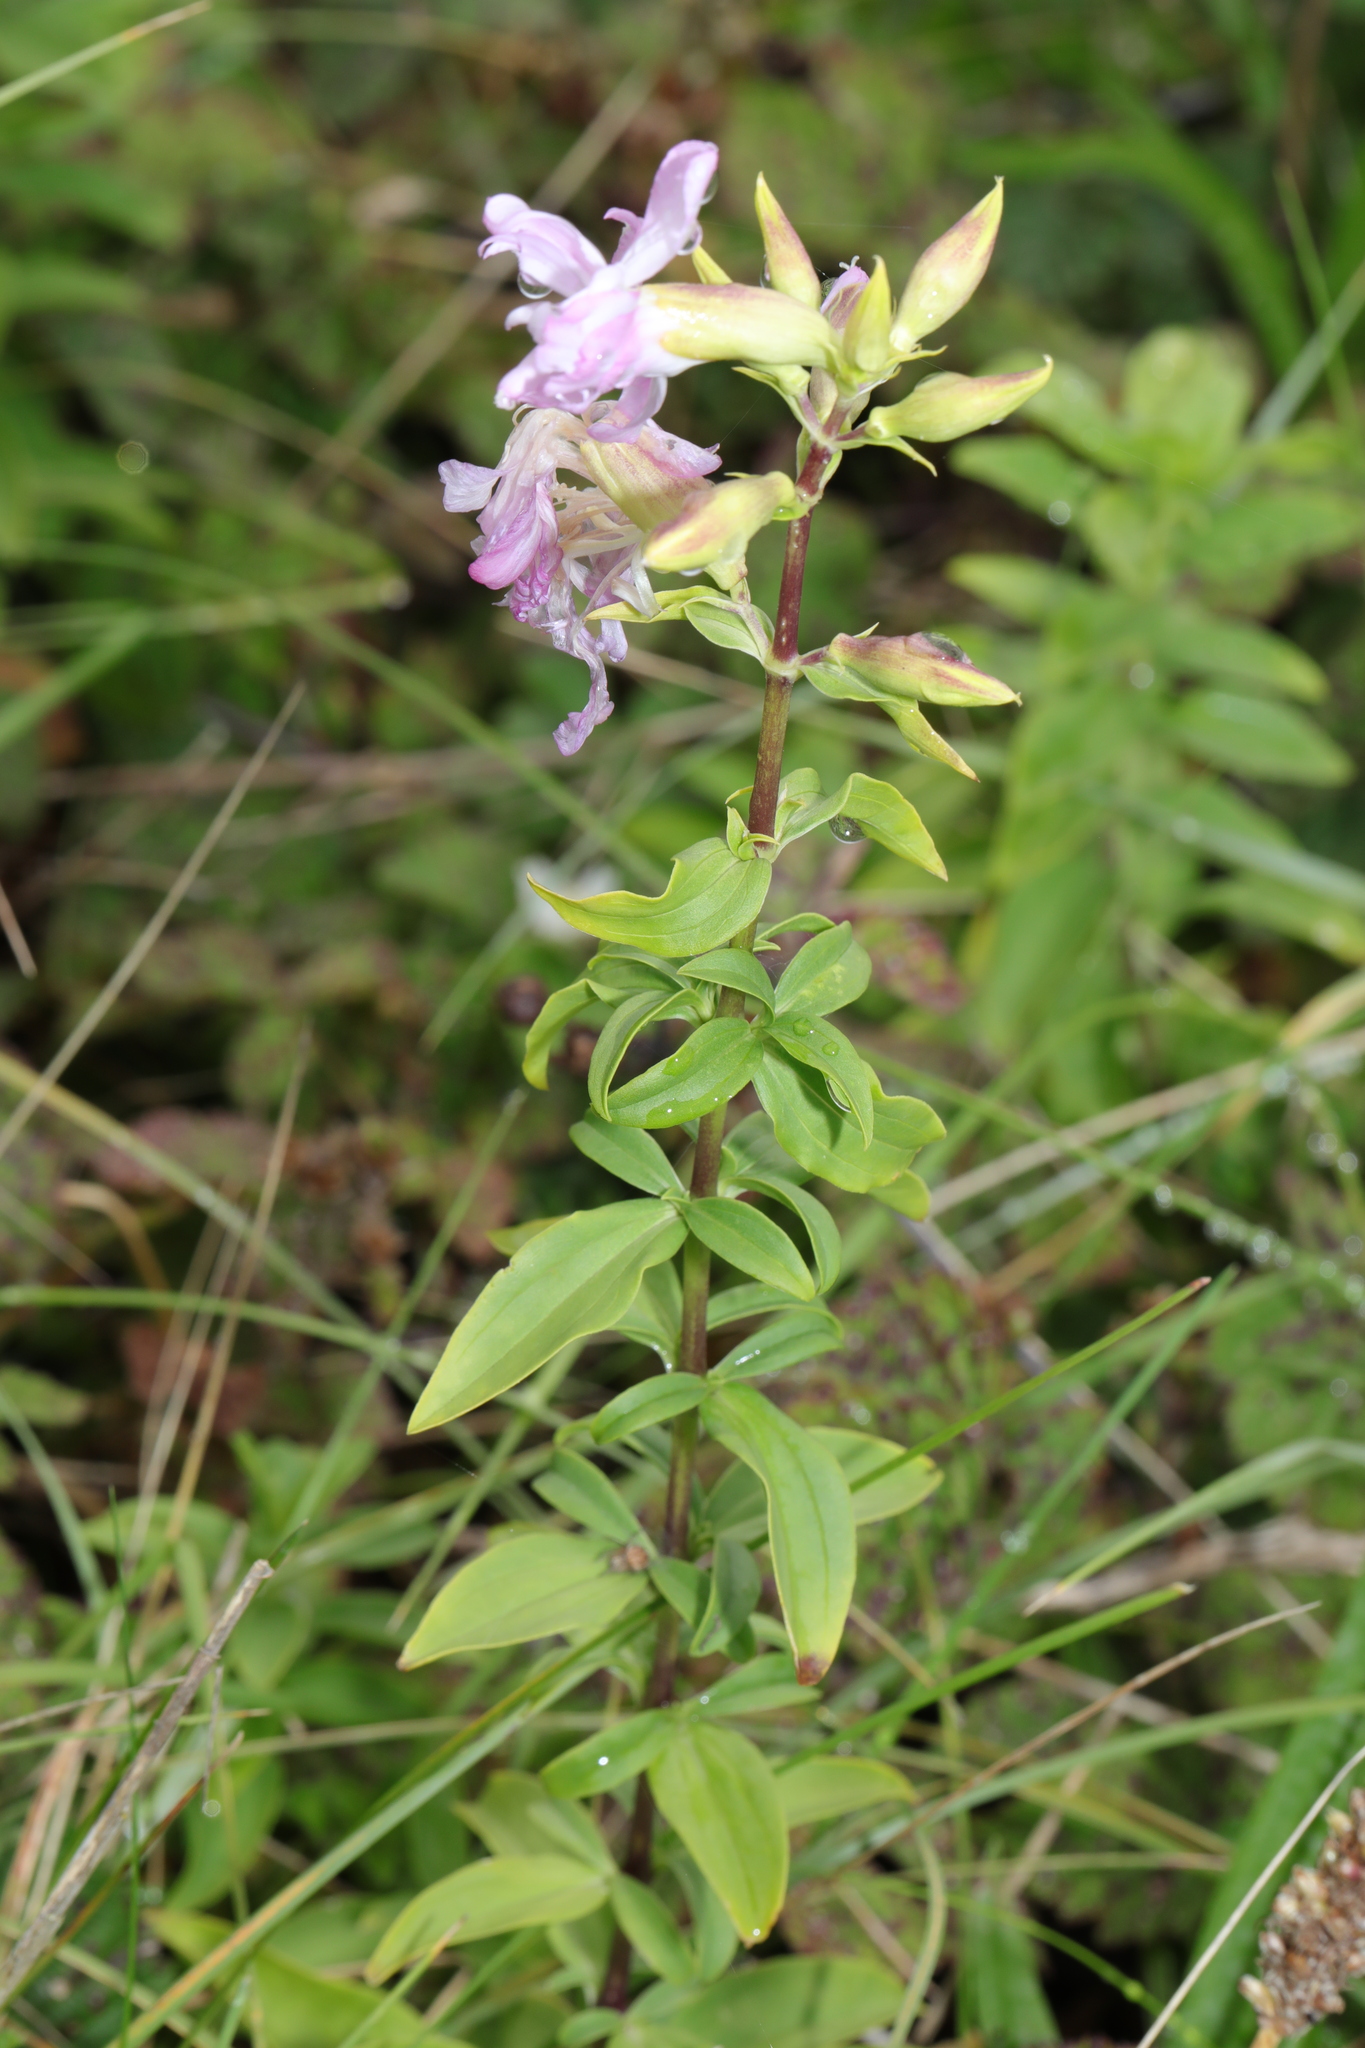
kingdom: Plantae
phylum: Tracheophyta
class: Magnoliopsida
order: Caryophyllales
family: Caryophyllaceae
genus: Saponaria
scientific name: Saponaria officinalis
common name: Soapwort
